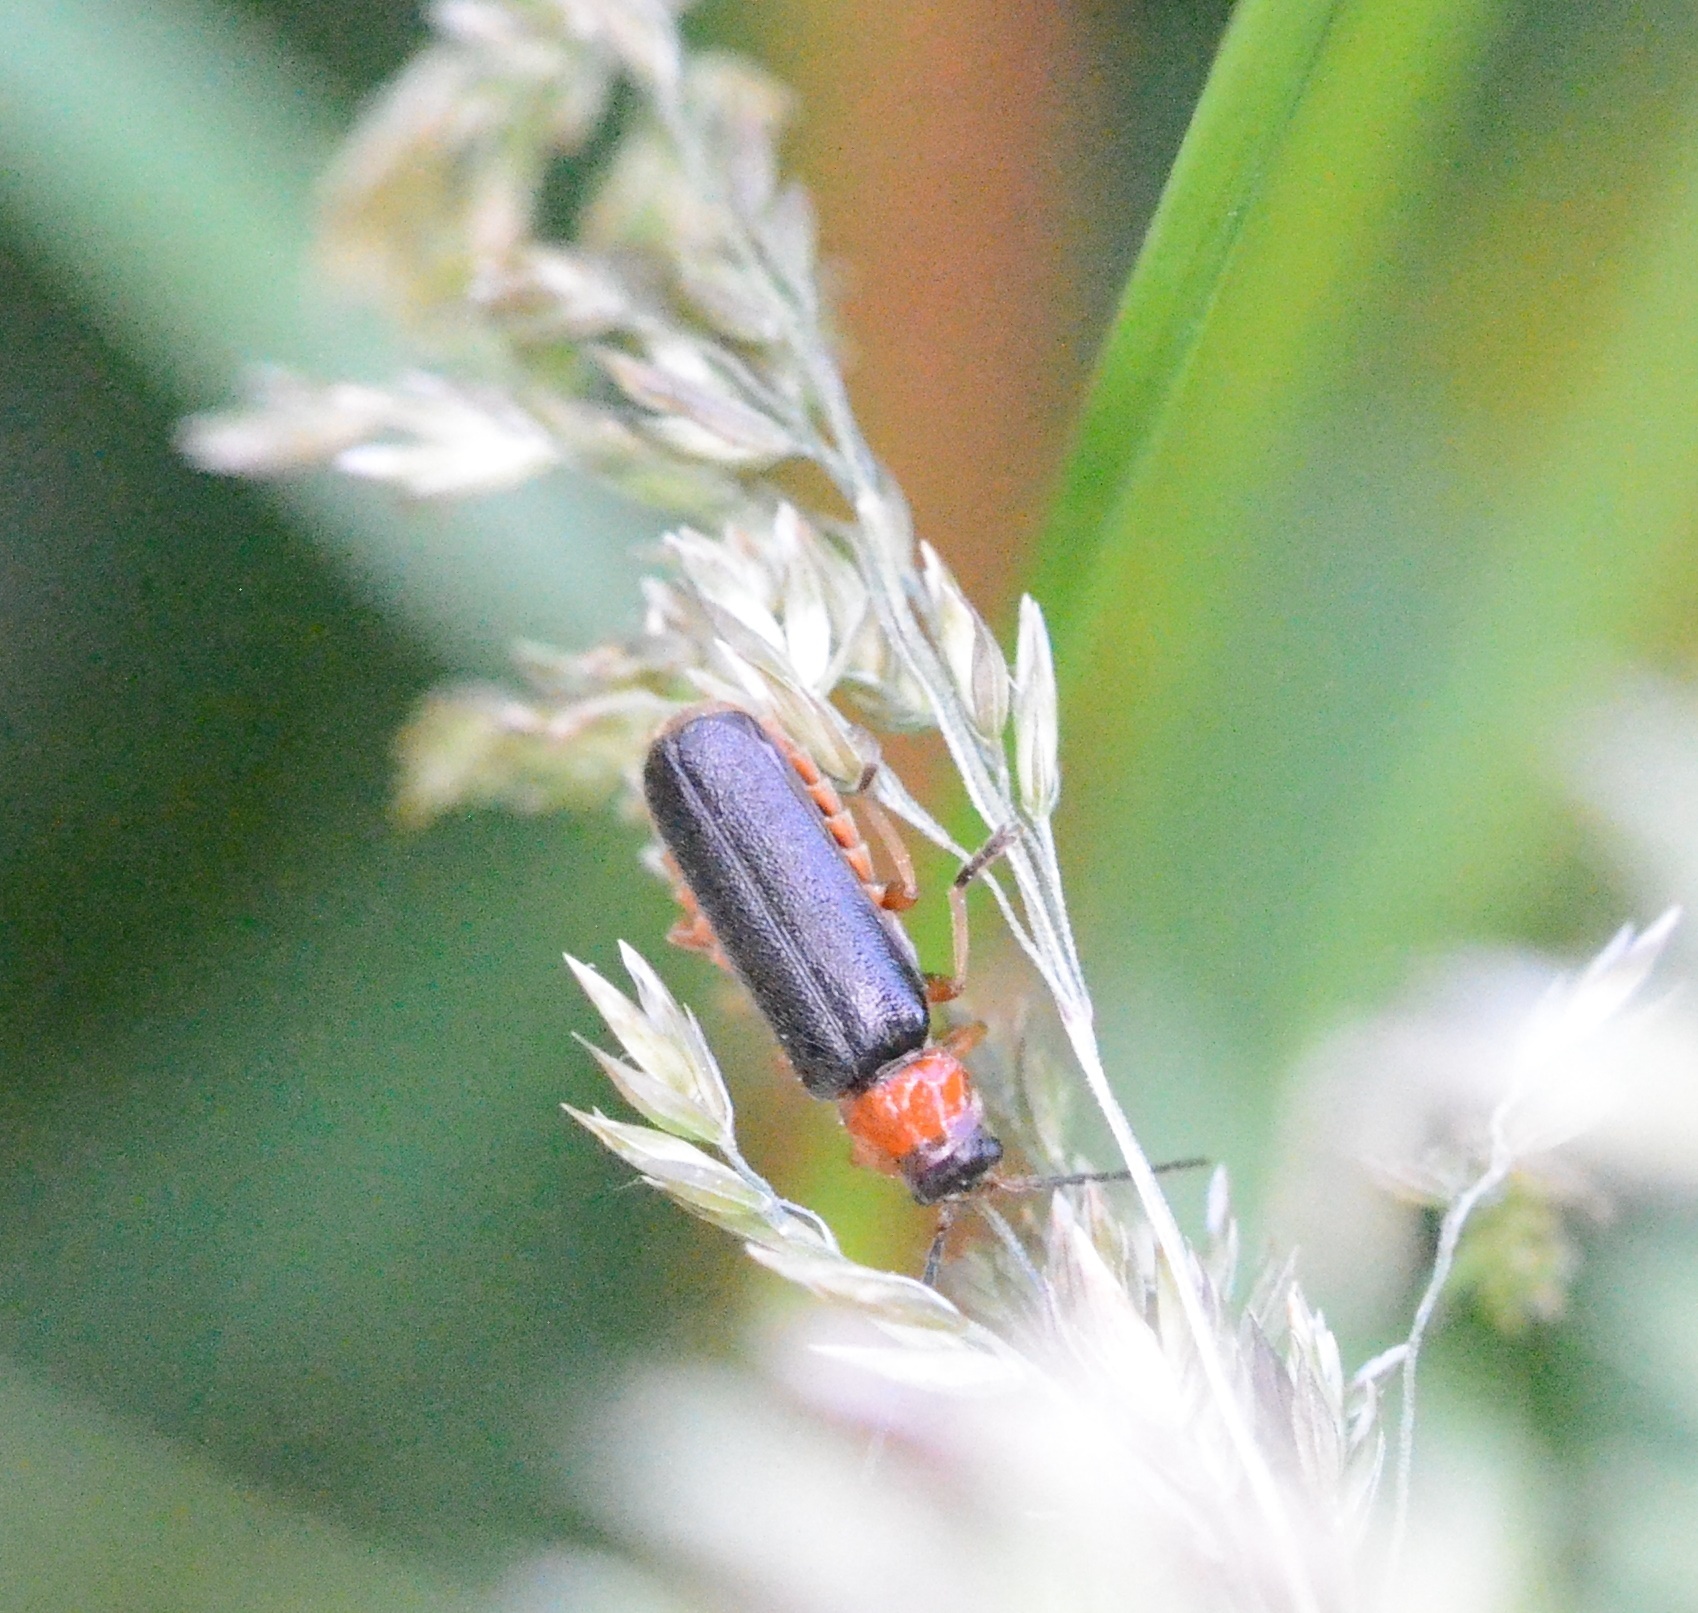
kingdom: Animalia
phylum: Arthropoda
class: Insecta
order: Coleoptera
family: Cantharidae
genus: Cantharis
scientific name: Cantharis flavilabris
